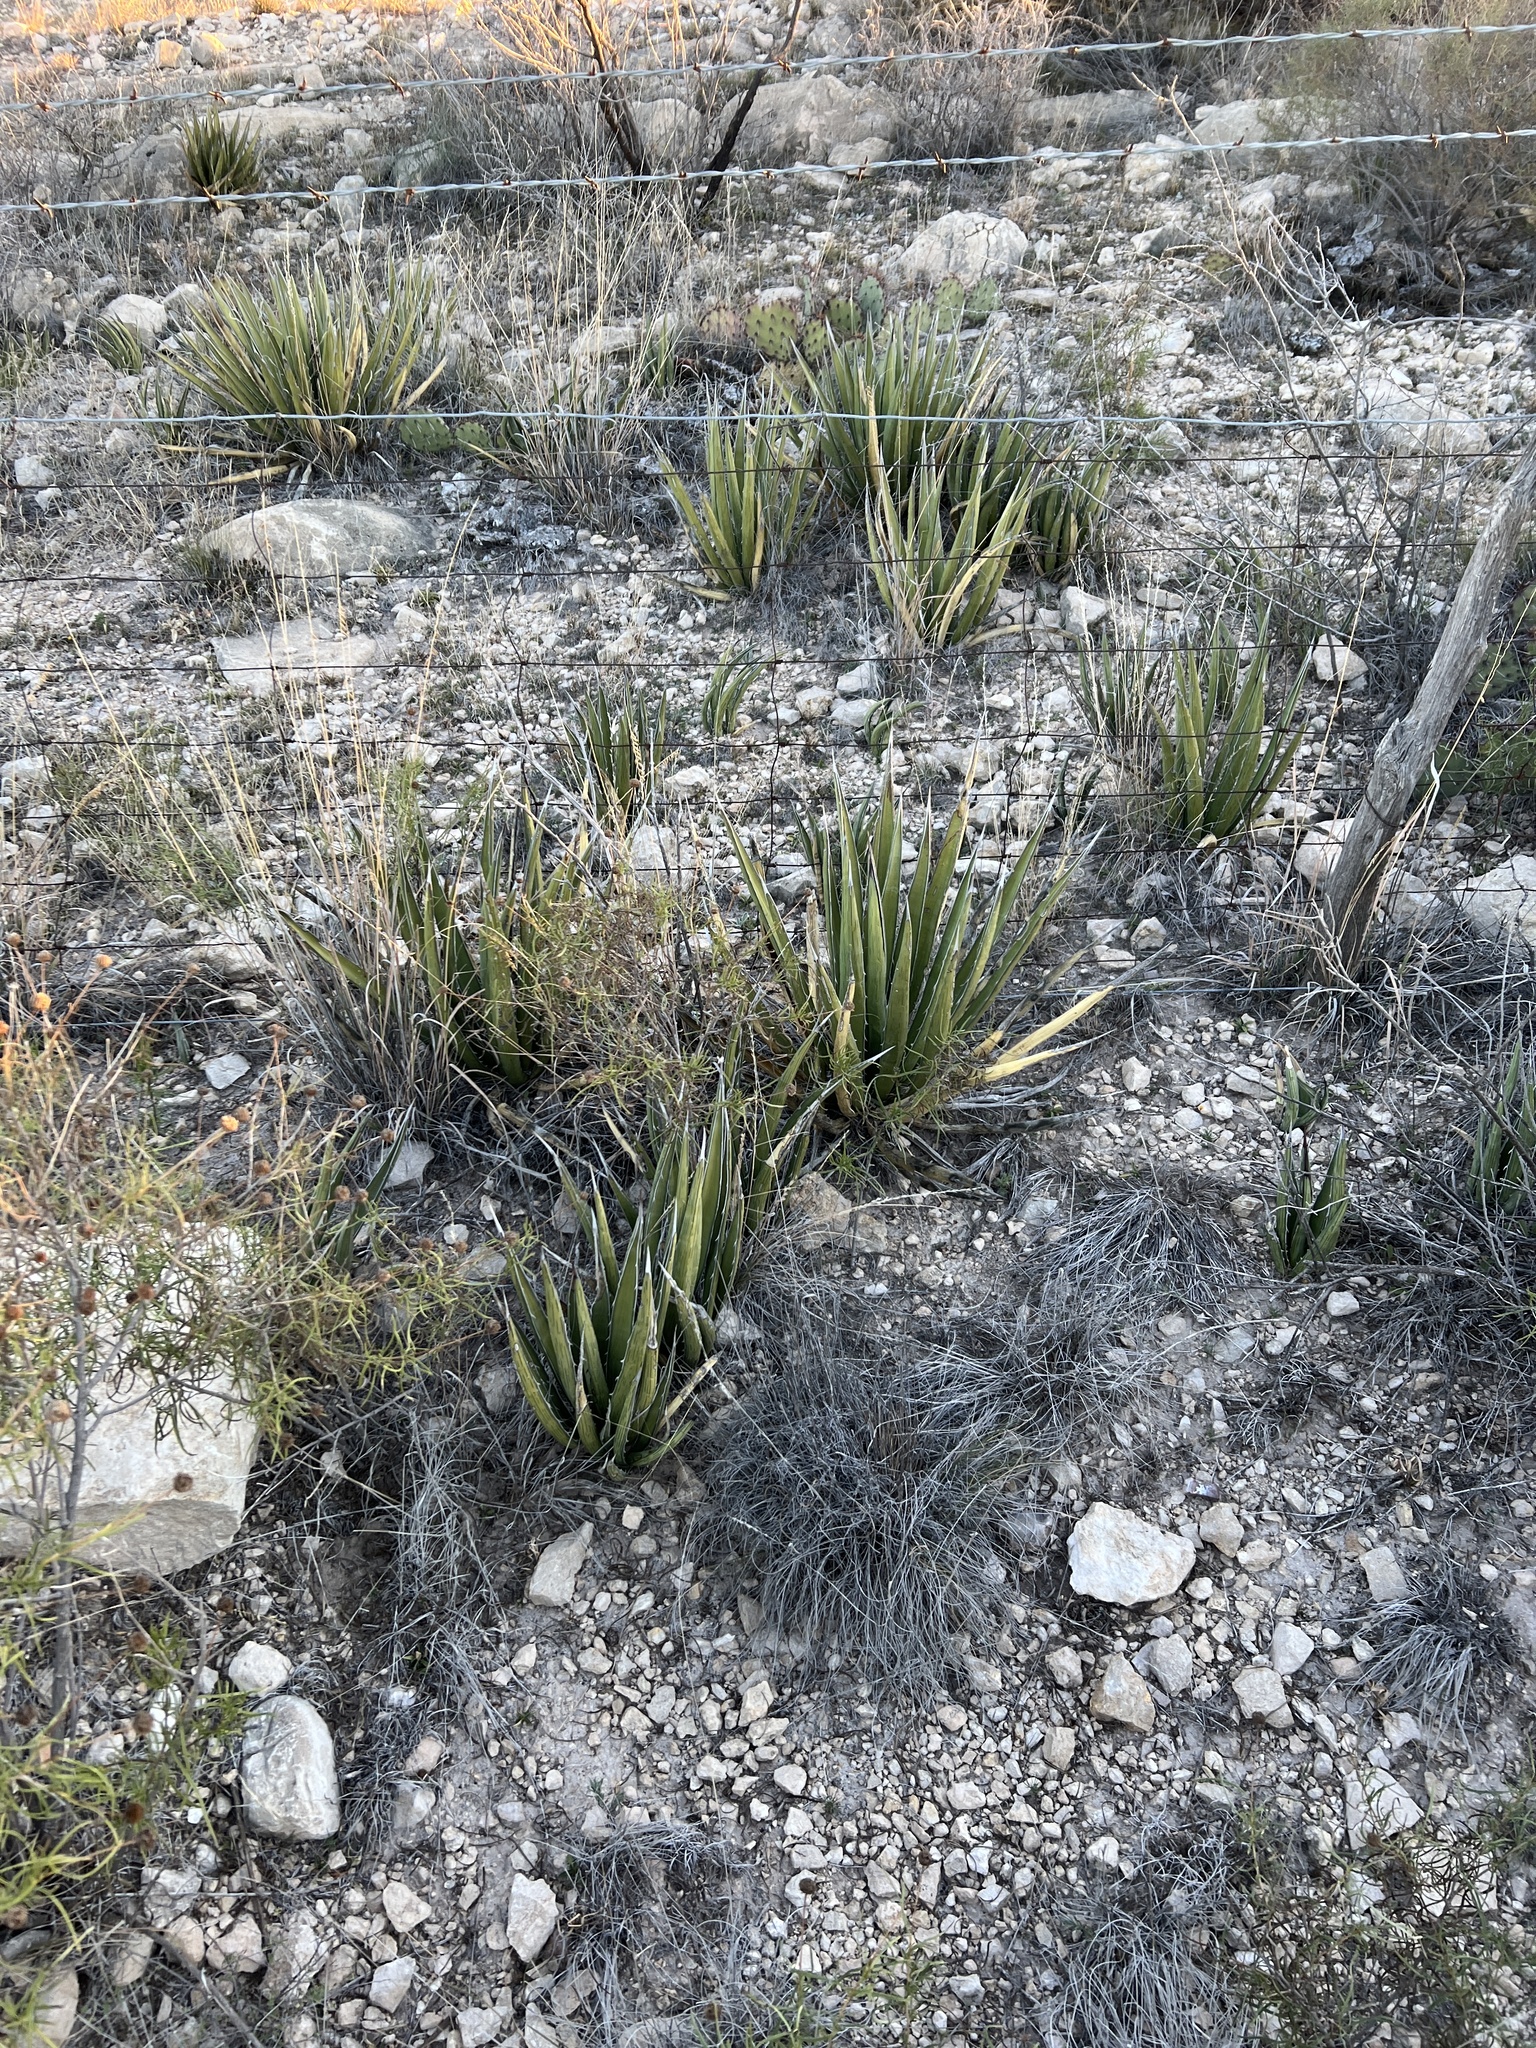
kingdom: Plantae
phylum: Tracheophyta
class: Liliopsida
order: Asparagales
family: Asparagaceae
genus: Agave
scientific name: Agave lechuguilla
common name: Lecheguilla agave
